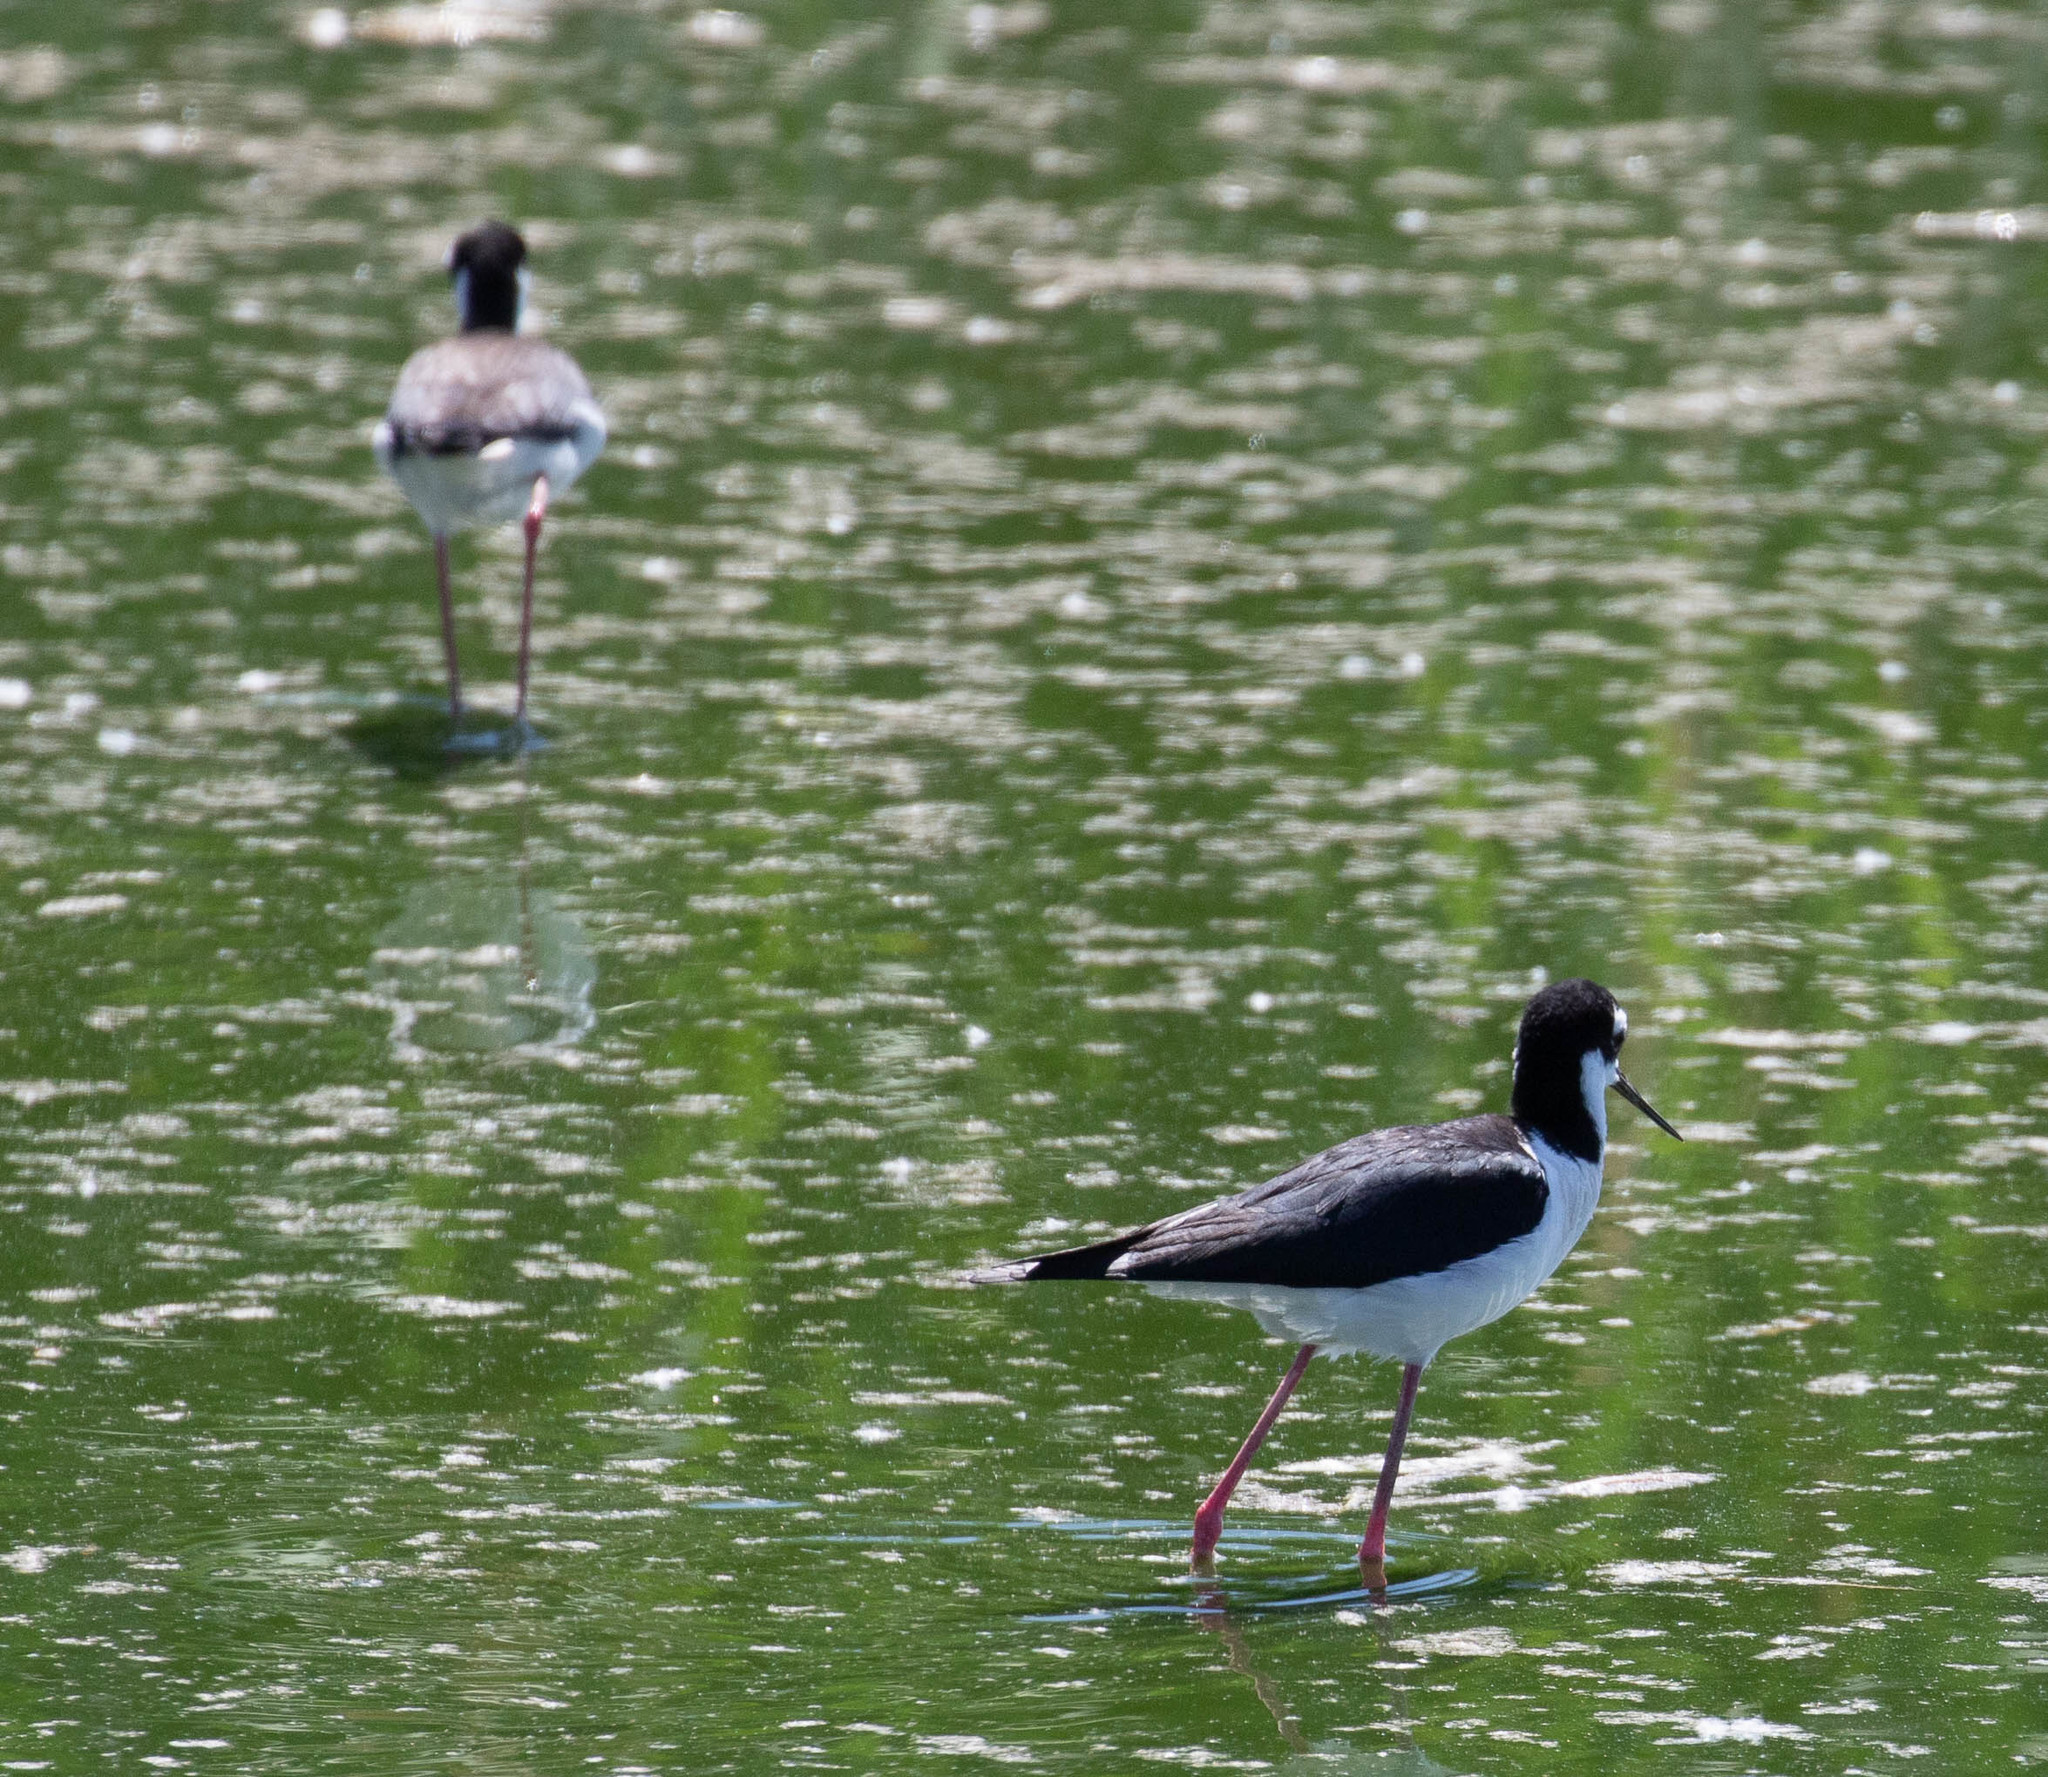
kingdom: Animalia
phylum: Chordata
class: Aves
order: Charadriiformes
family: Recurvirostridae
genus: Himantopus
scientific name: Himantopus mexicanus
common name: Black-necked stilt
